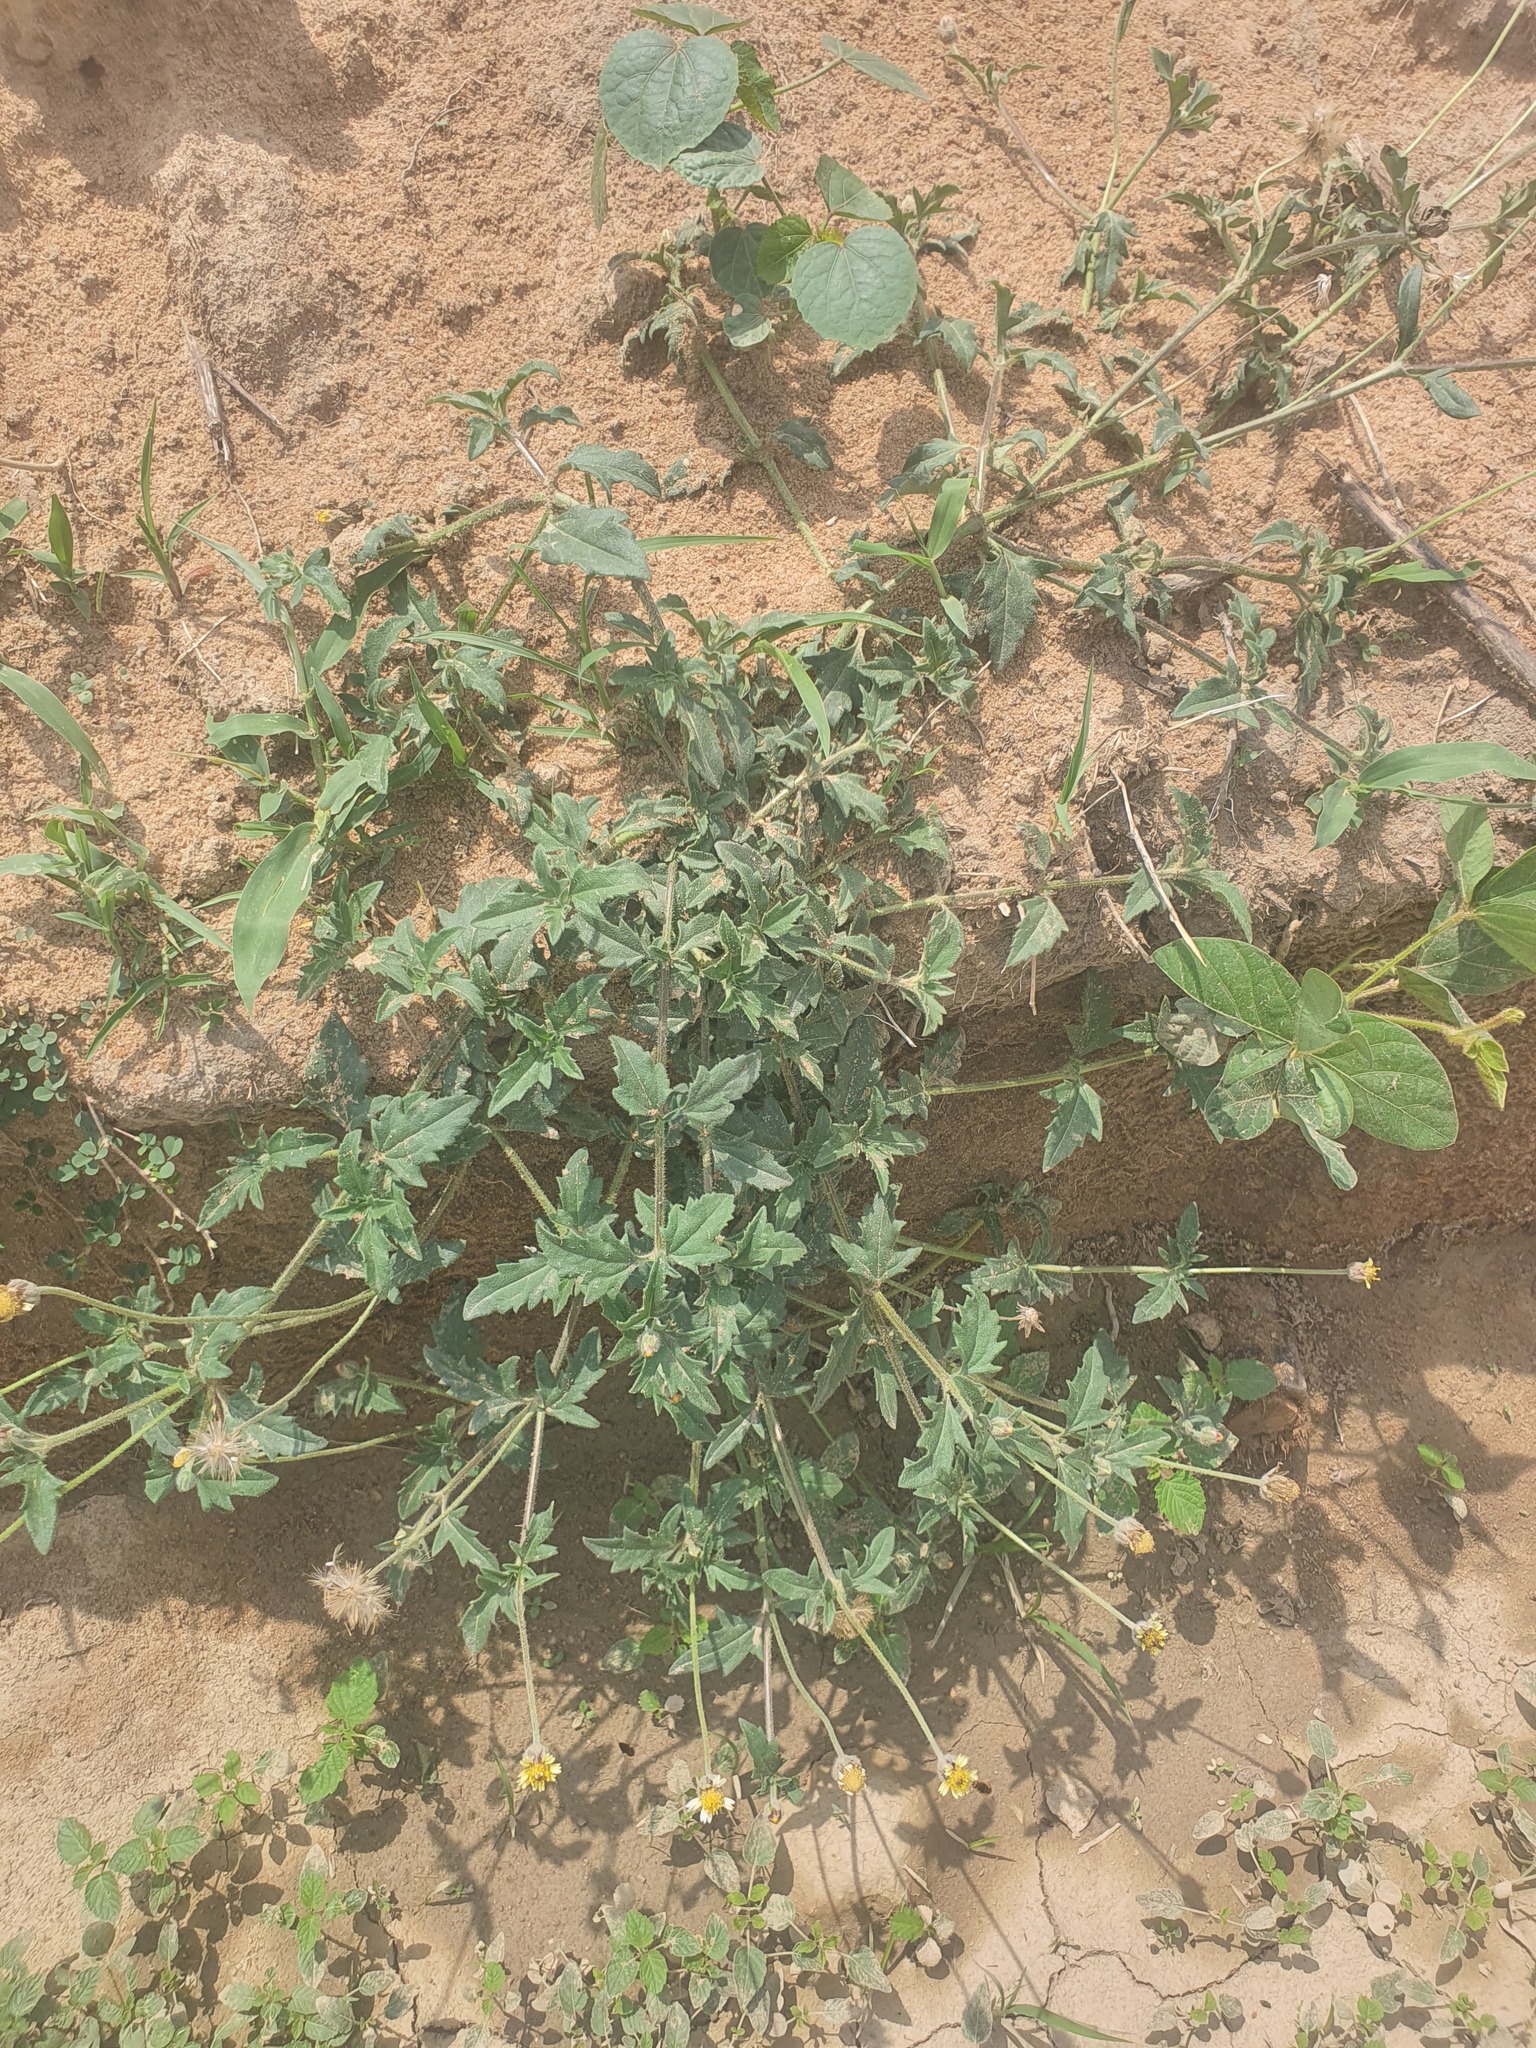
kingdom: Plantae
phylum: Tracheophyta
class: Magnoliopsida
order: Asterales
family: Asteraceae
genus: Tridax
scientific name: Tridax procumbens
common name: Coatbuttons
